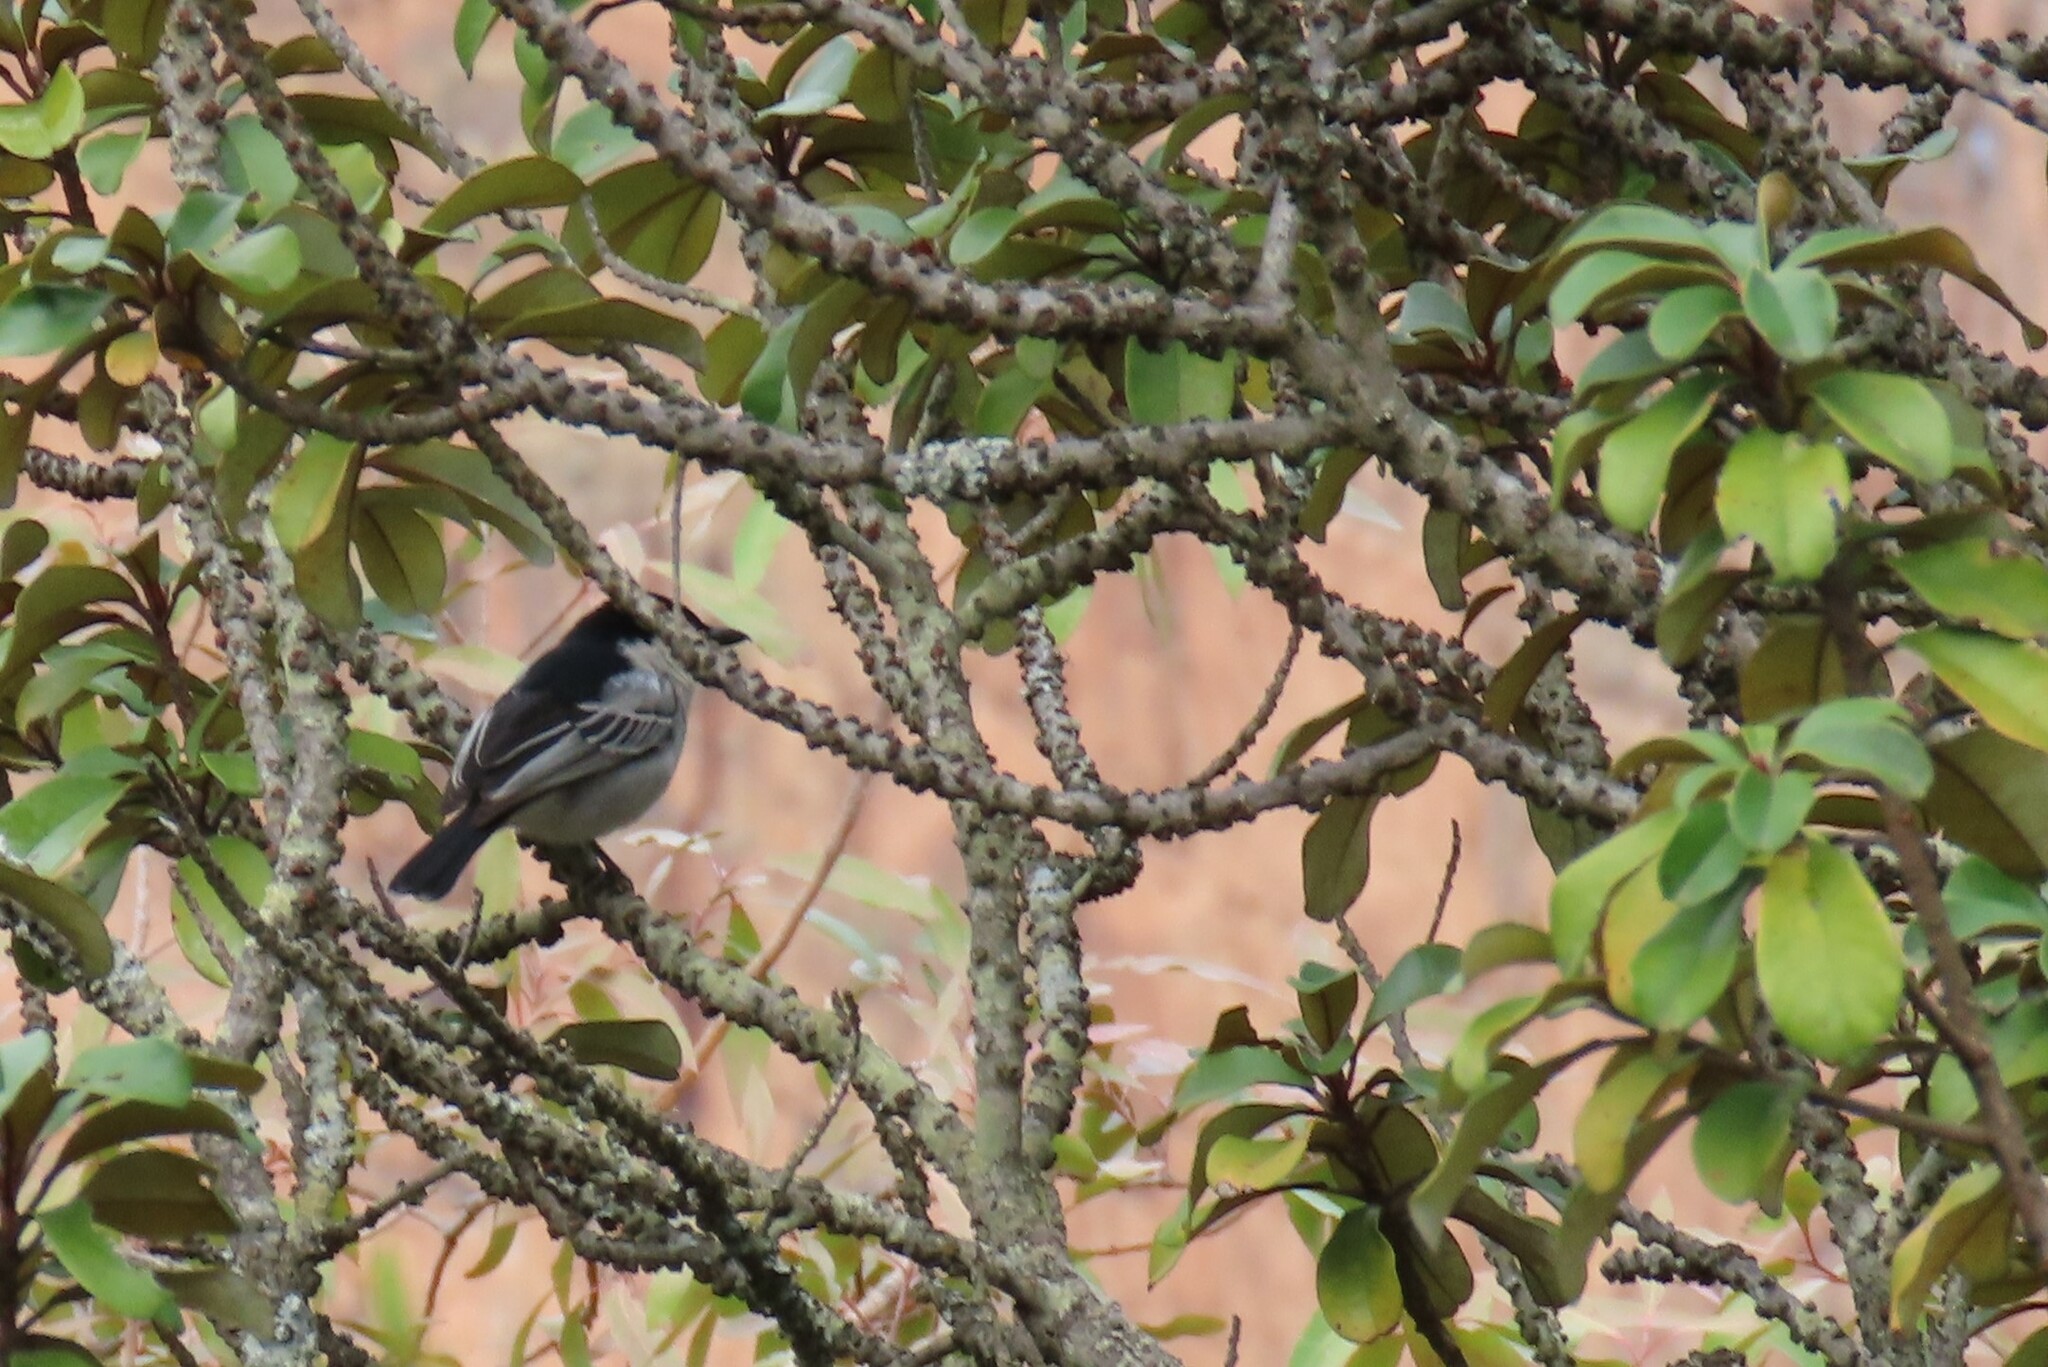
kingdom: Animalia
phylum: Chordata
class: Aves
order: Passeriformes
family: Malaconotidae
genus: Dryoscopus
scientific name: Dryoscopus cubla
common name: Black-backed puffback
